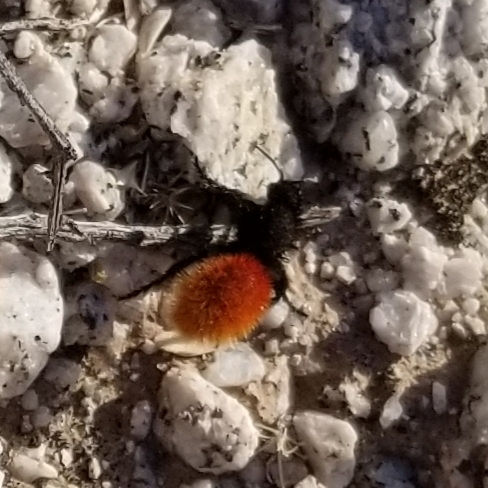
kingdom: Animalia
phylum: Arthropoda
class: Insecta
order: Hymenoptera
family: Mutillidae
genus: Dasymutilla
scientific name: Dasymutilla magnifica
